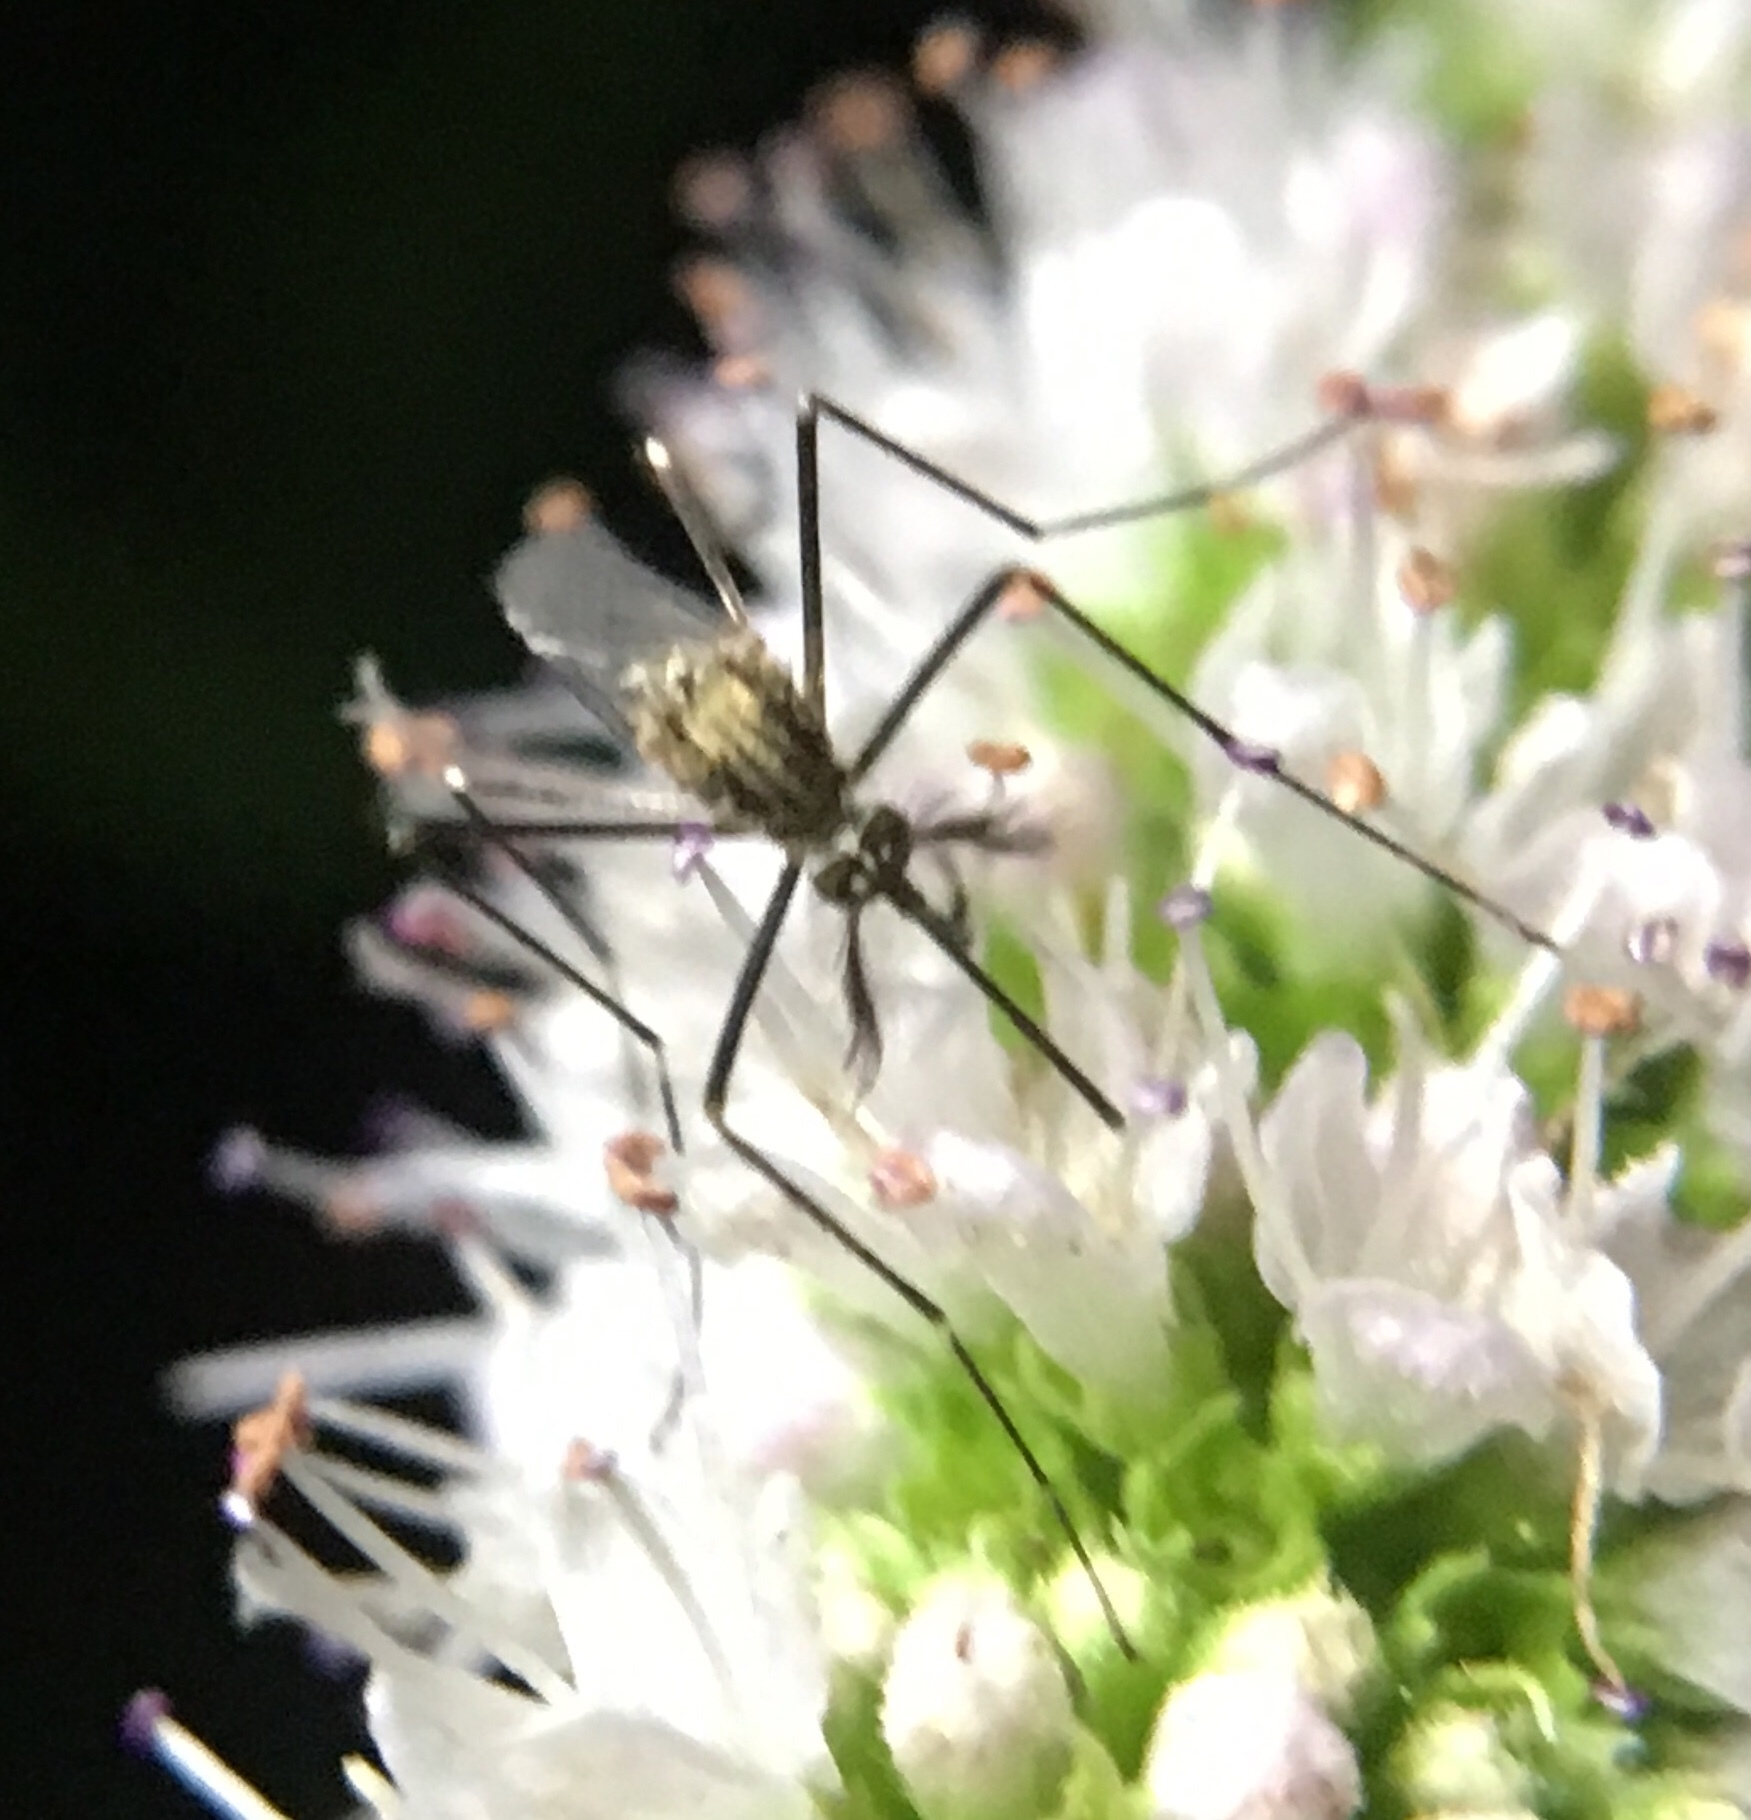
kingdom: Animalia
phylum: Arthropoda
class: Insecta
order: Diptera
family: Culicidae
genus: Aedes
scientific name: Aedes japonicus
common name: Asian bush mosquito
